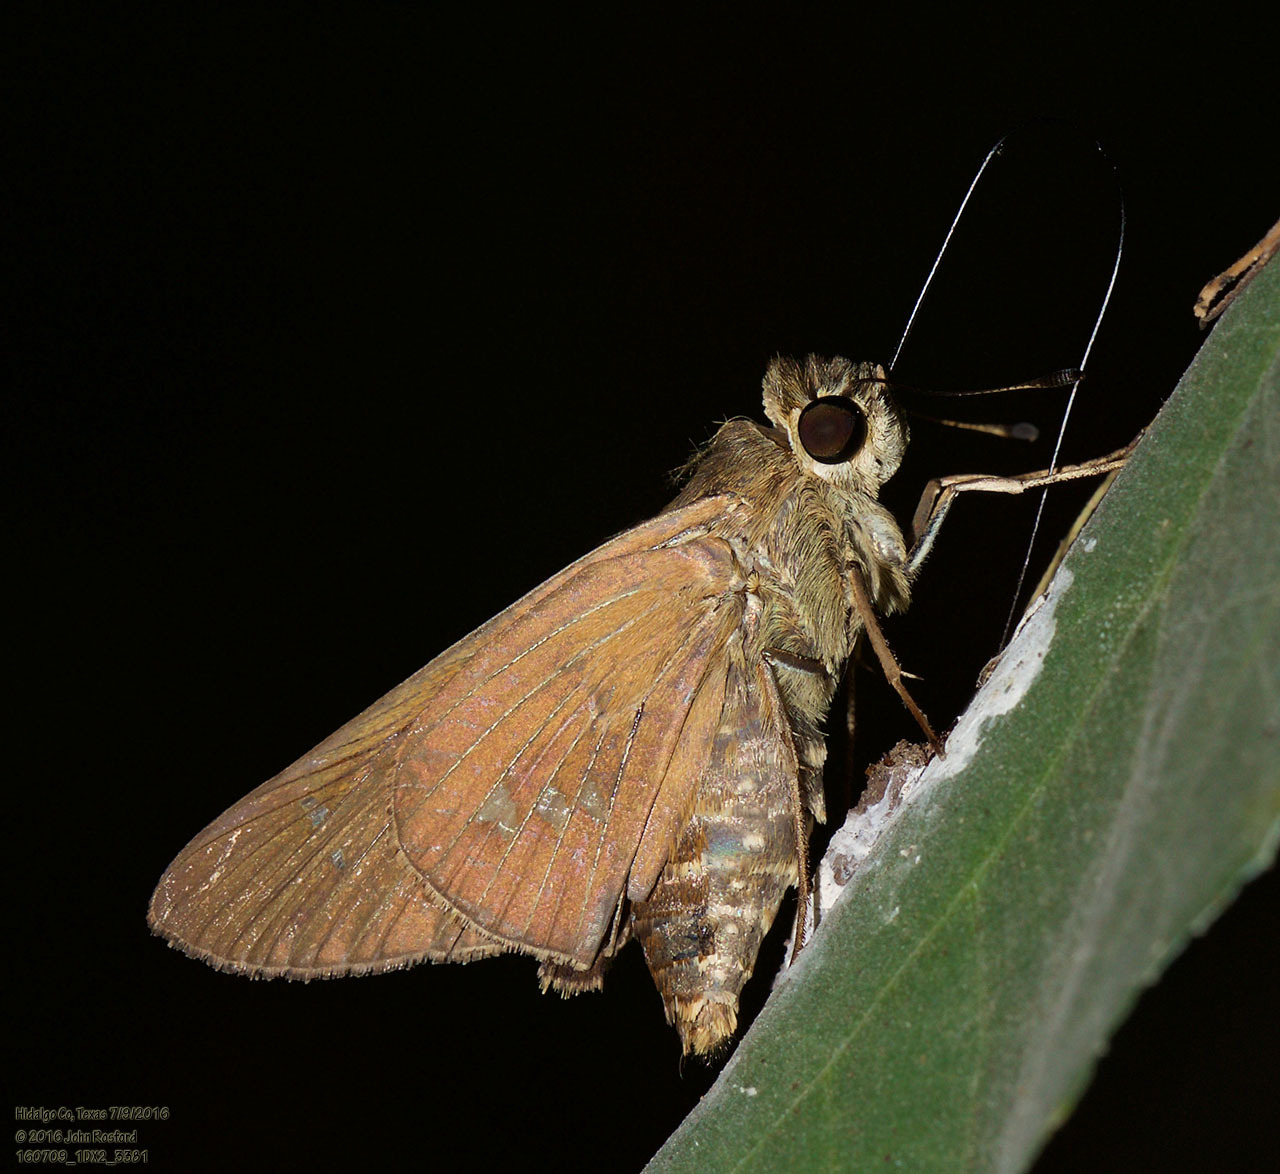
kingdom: Animalia
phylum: Arthropoda
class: Insecta
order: Lepidoptera
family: Hesperiidae
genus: Calpodes
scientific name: Calpodes ethlius
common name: Brazilian skipper
